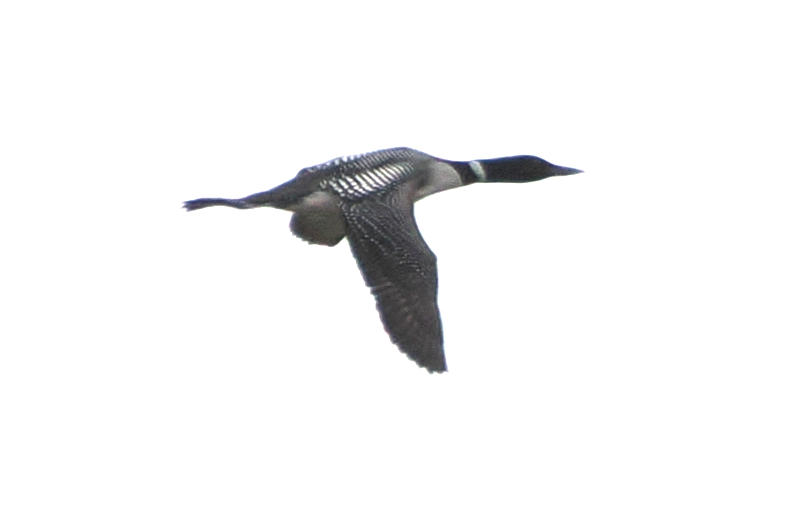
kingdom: Animalia
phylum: Chordata
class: Aves
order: Gaviiformes
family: Gaviidae
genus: Gavia
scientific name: Gavia immer
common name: Common loon
